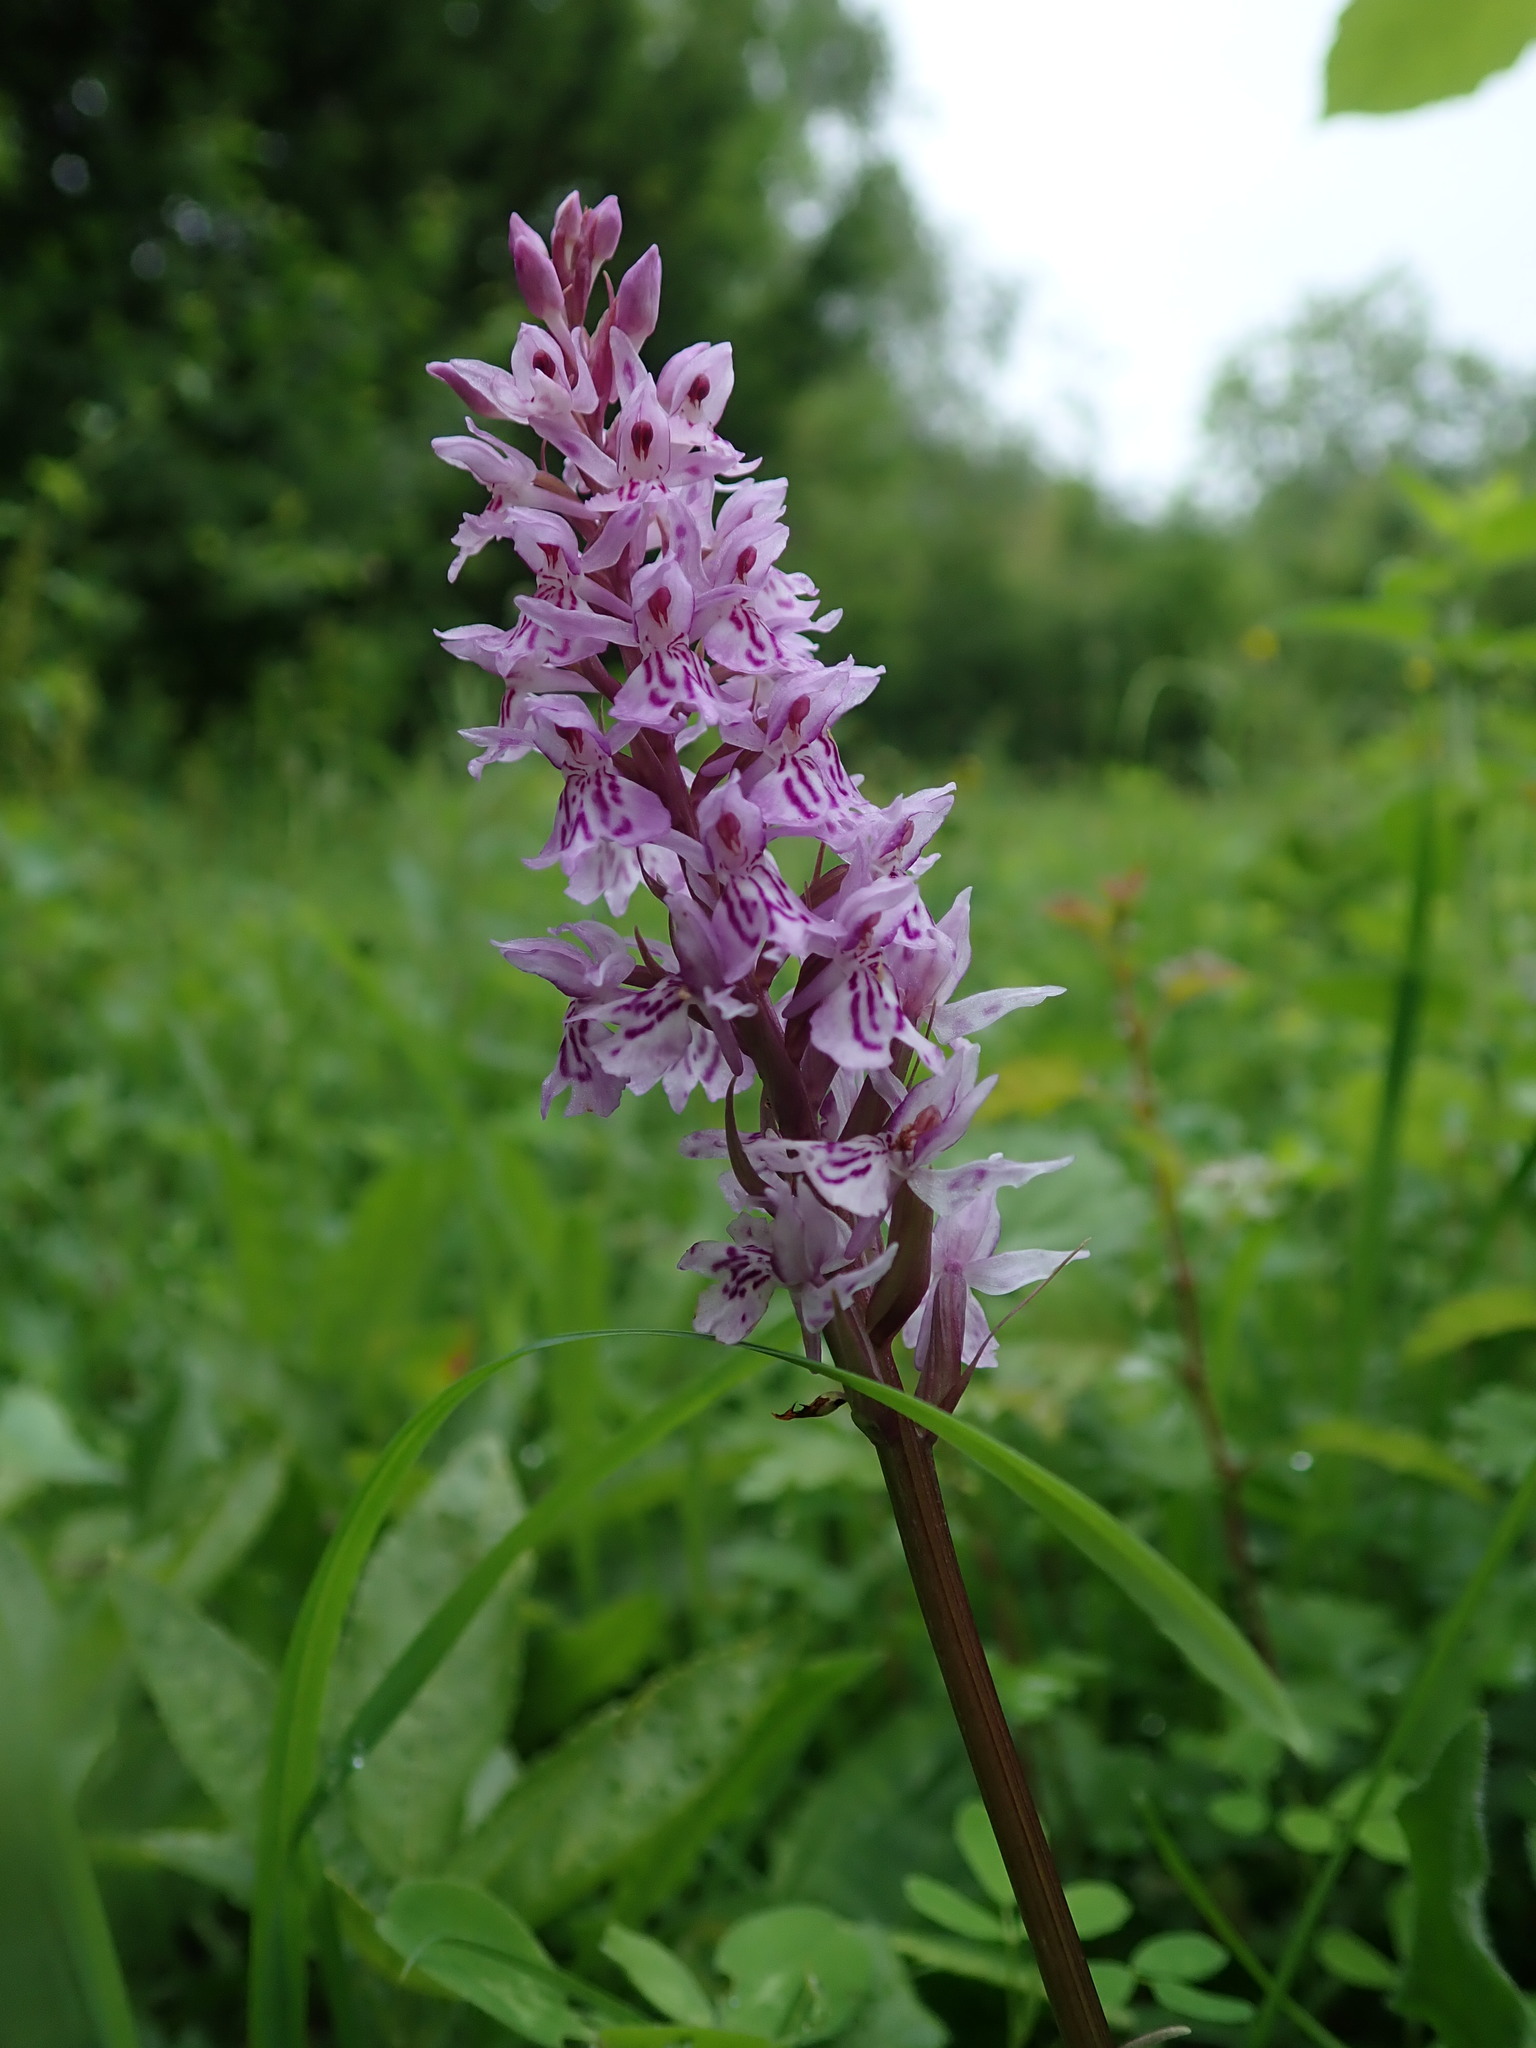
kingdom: Plantae
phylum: Tracheophyta
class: Liliopsida
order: Asparagales
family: Orchidaceae
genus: Dactylorhiza
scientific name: Dactylorhiza maculata
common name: Heath spotted-orchid
